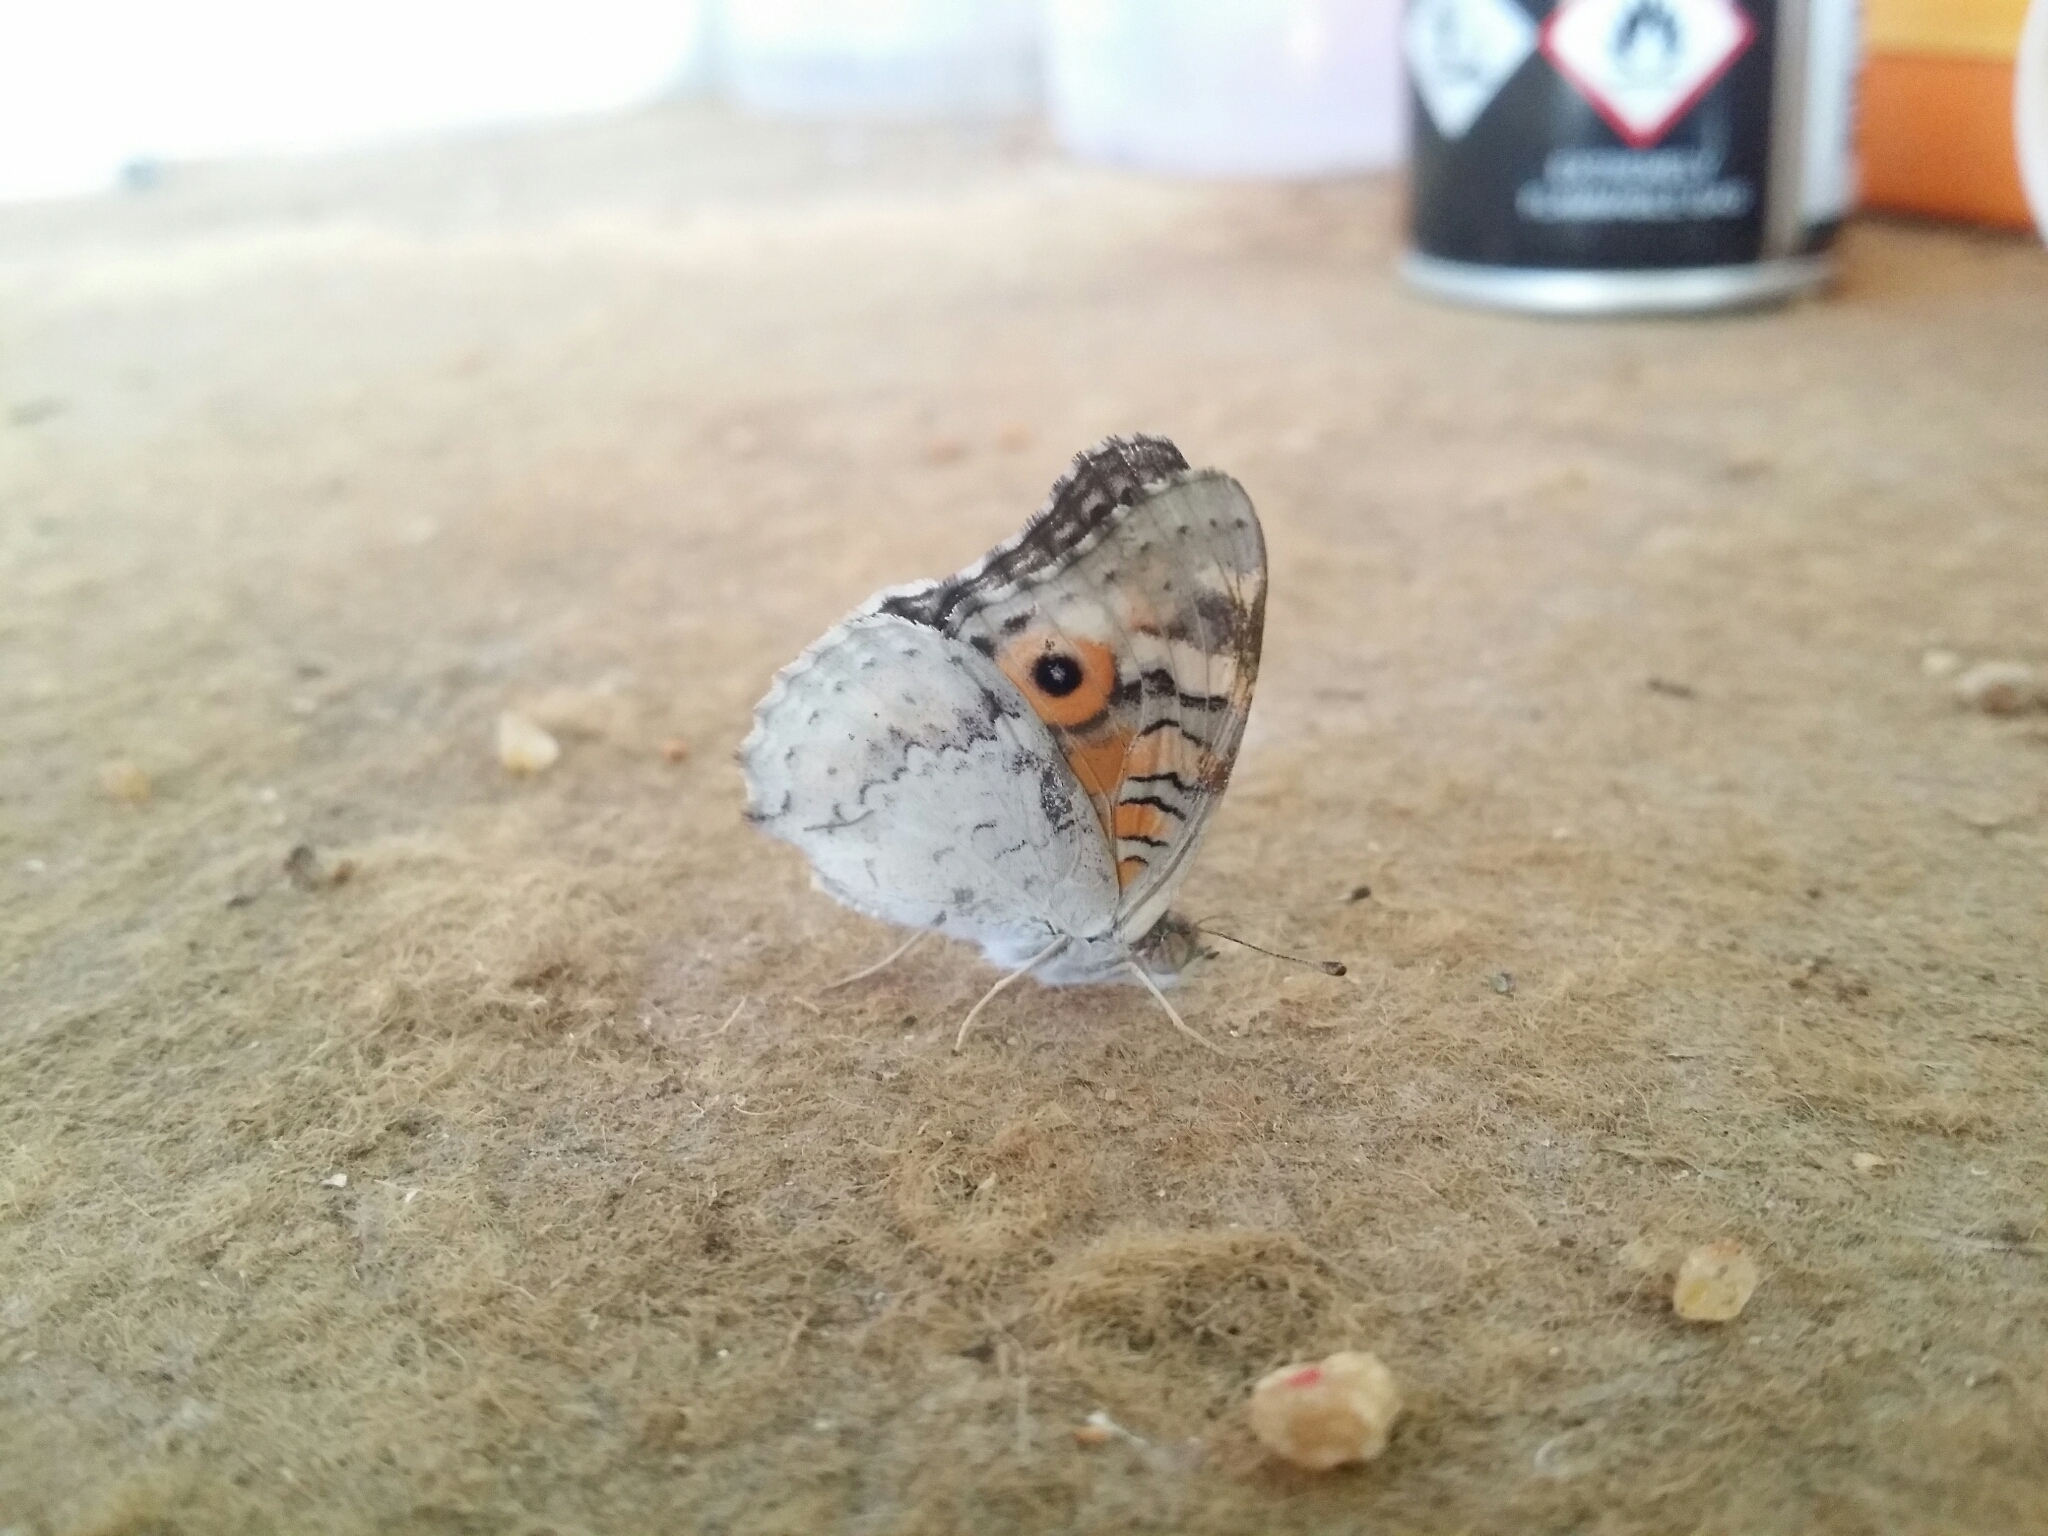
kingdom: Animalia
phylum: Arthropoda
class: Insecta
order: Lepidoptera
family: Nymphalidae
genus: Junonia
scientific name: Junonia villida
